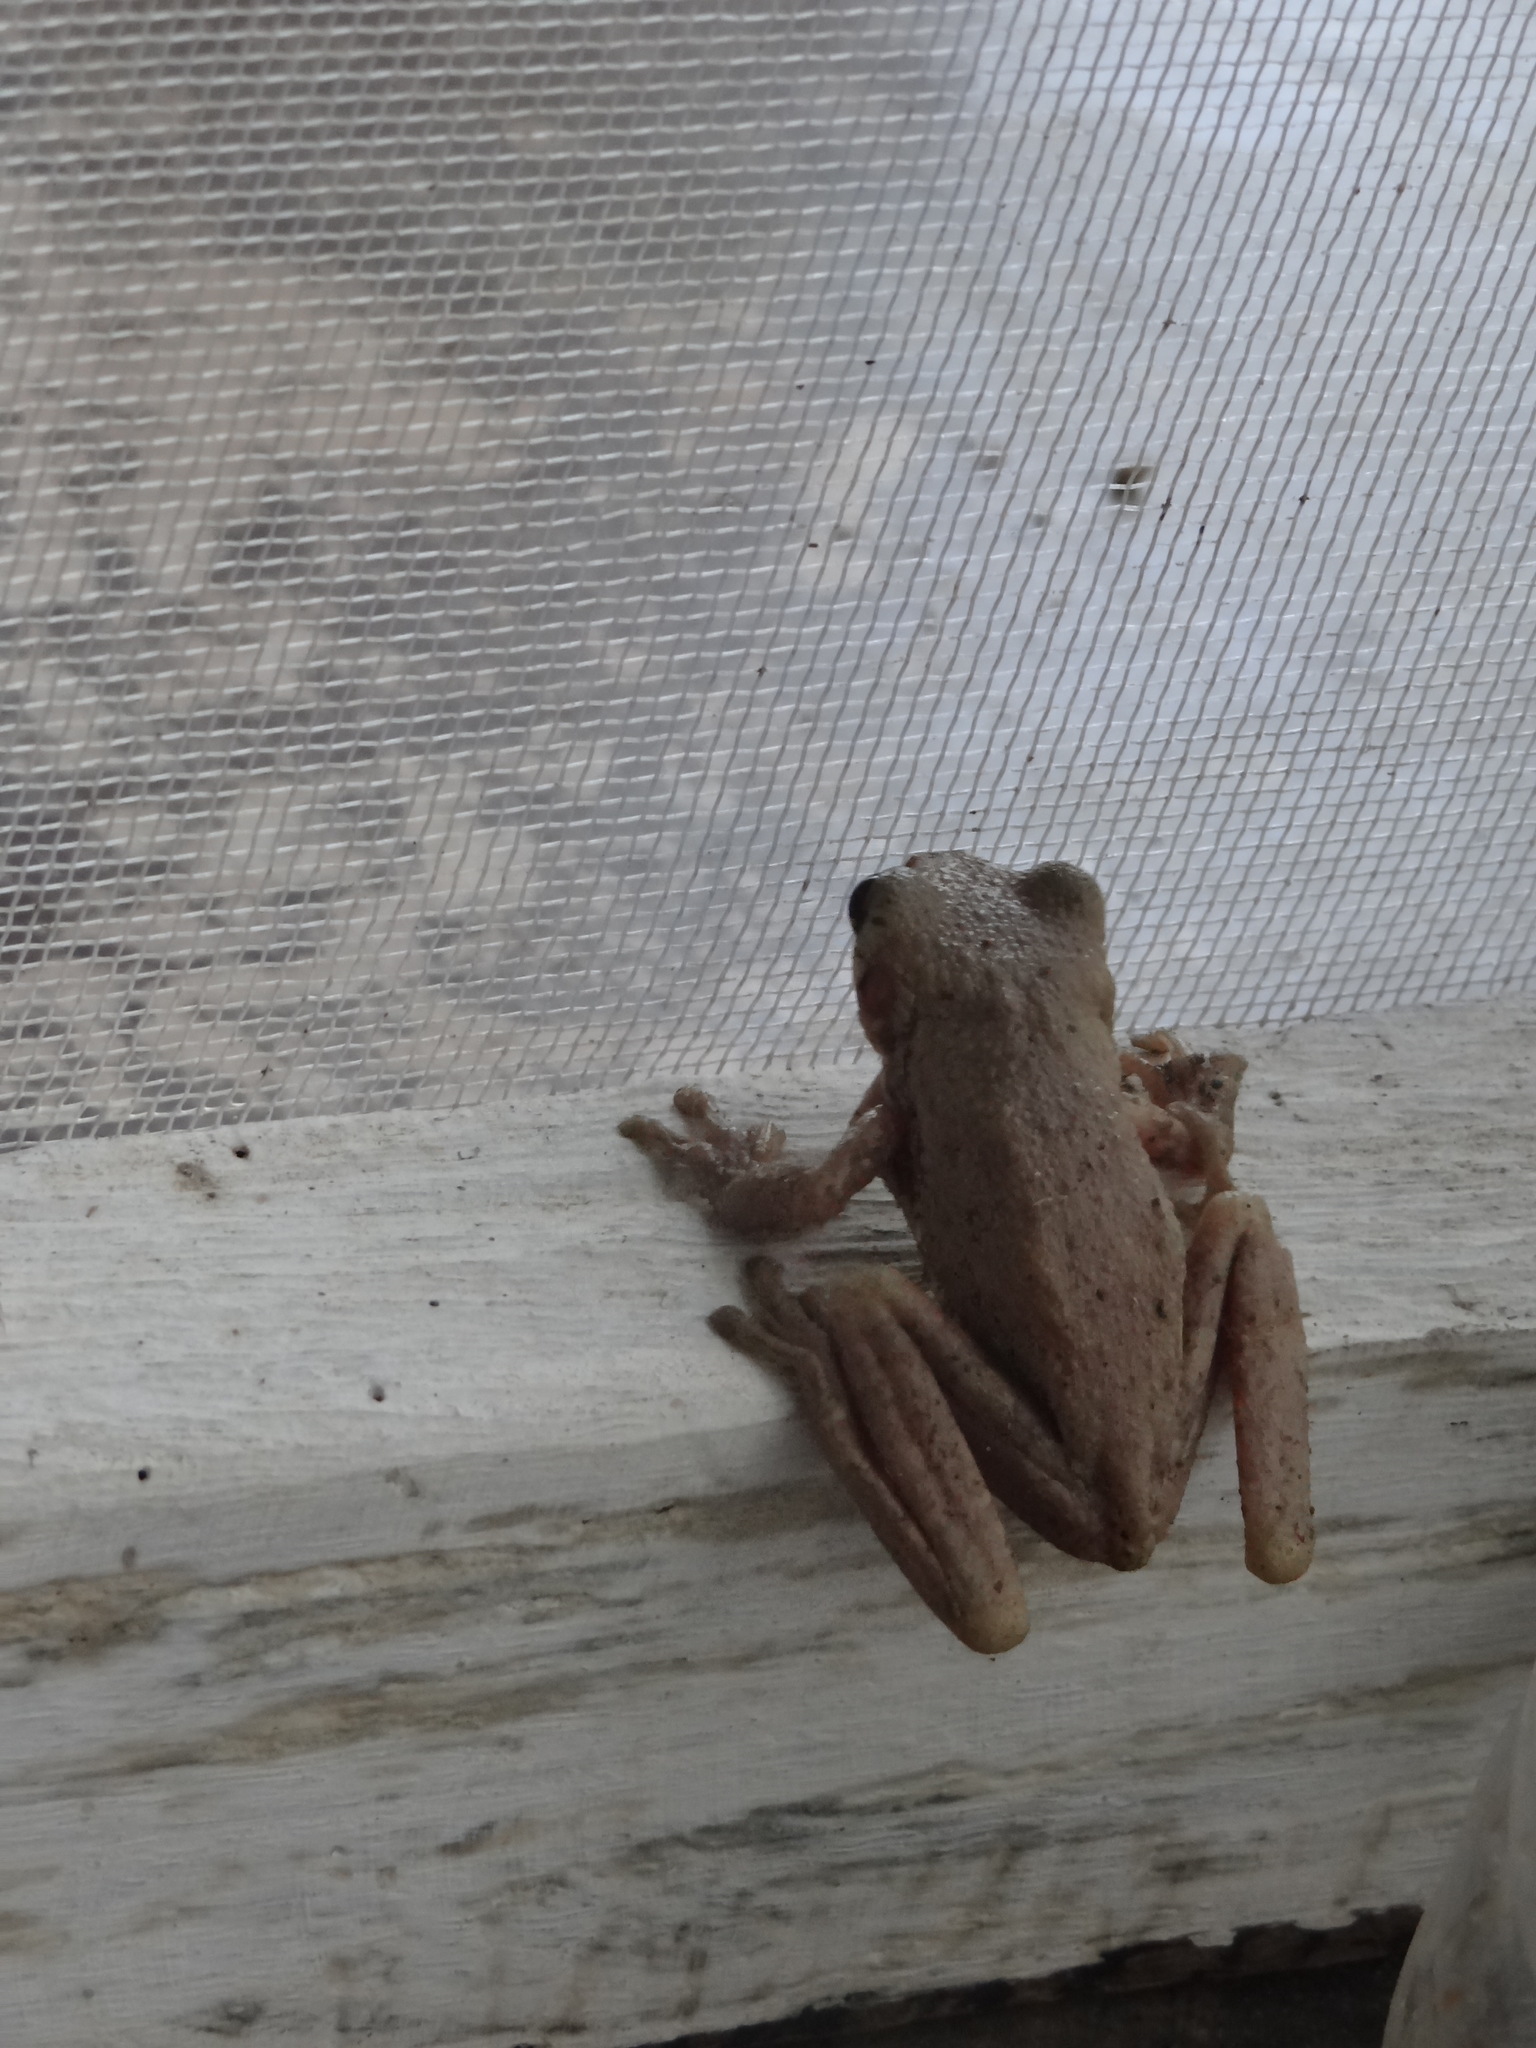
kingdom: Animalia
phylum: Chordata
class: Amphibia
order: Anura
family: Hylidae
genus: Boana
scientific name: Boana platanera
